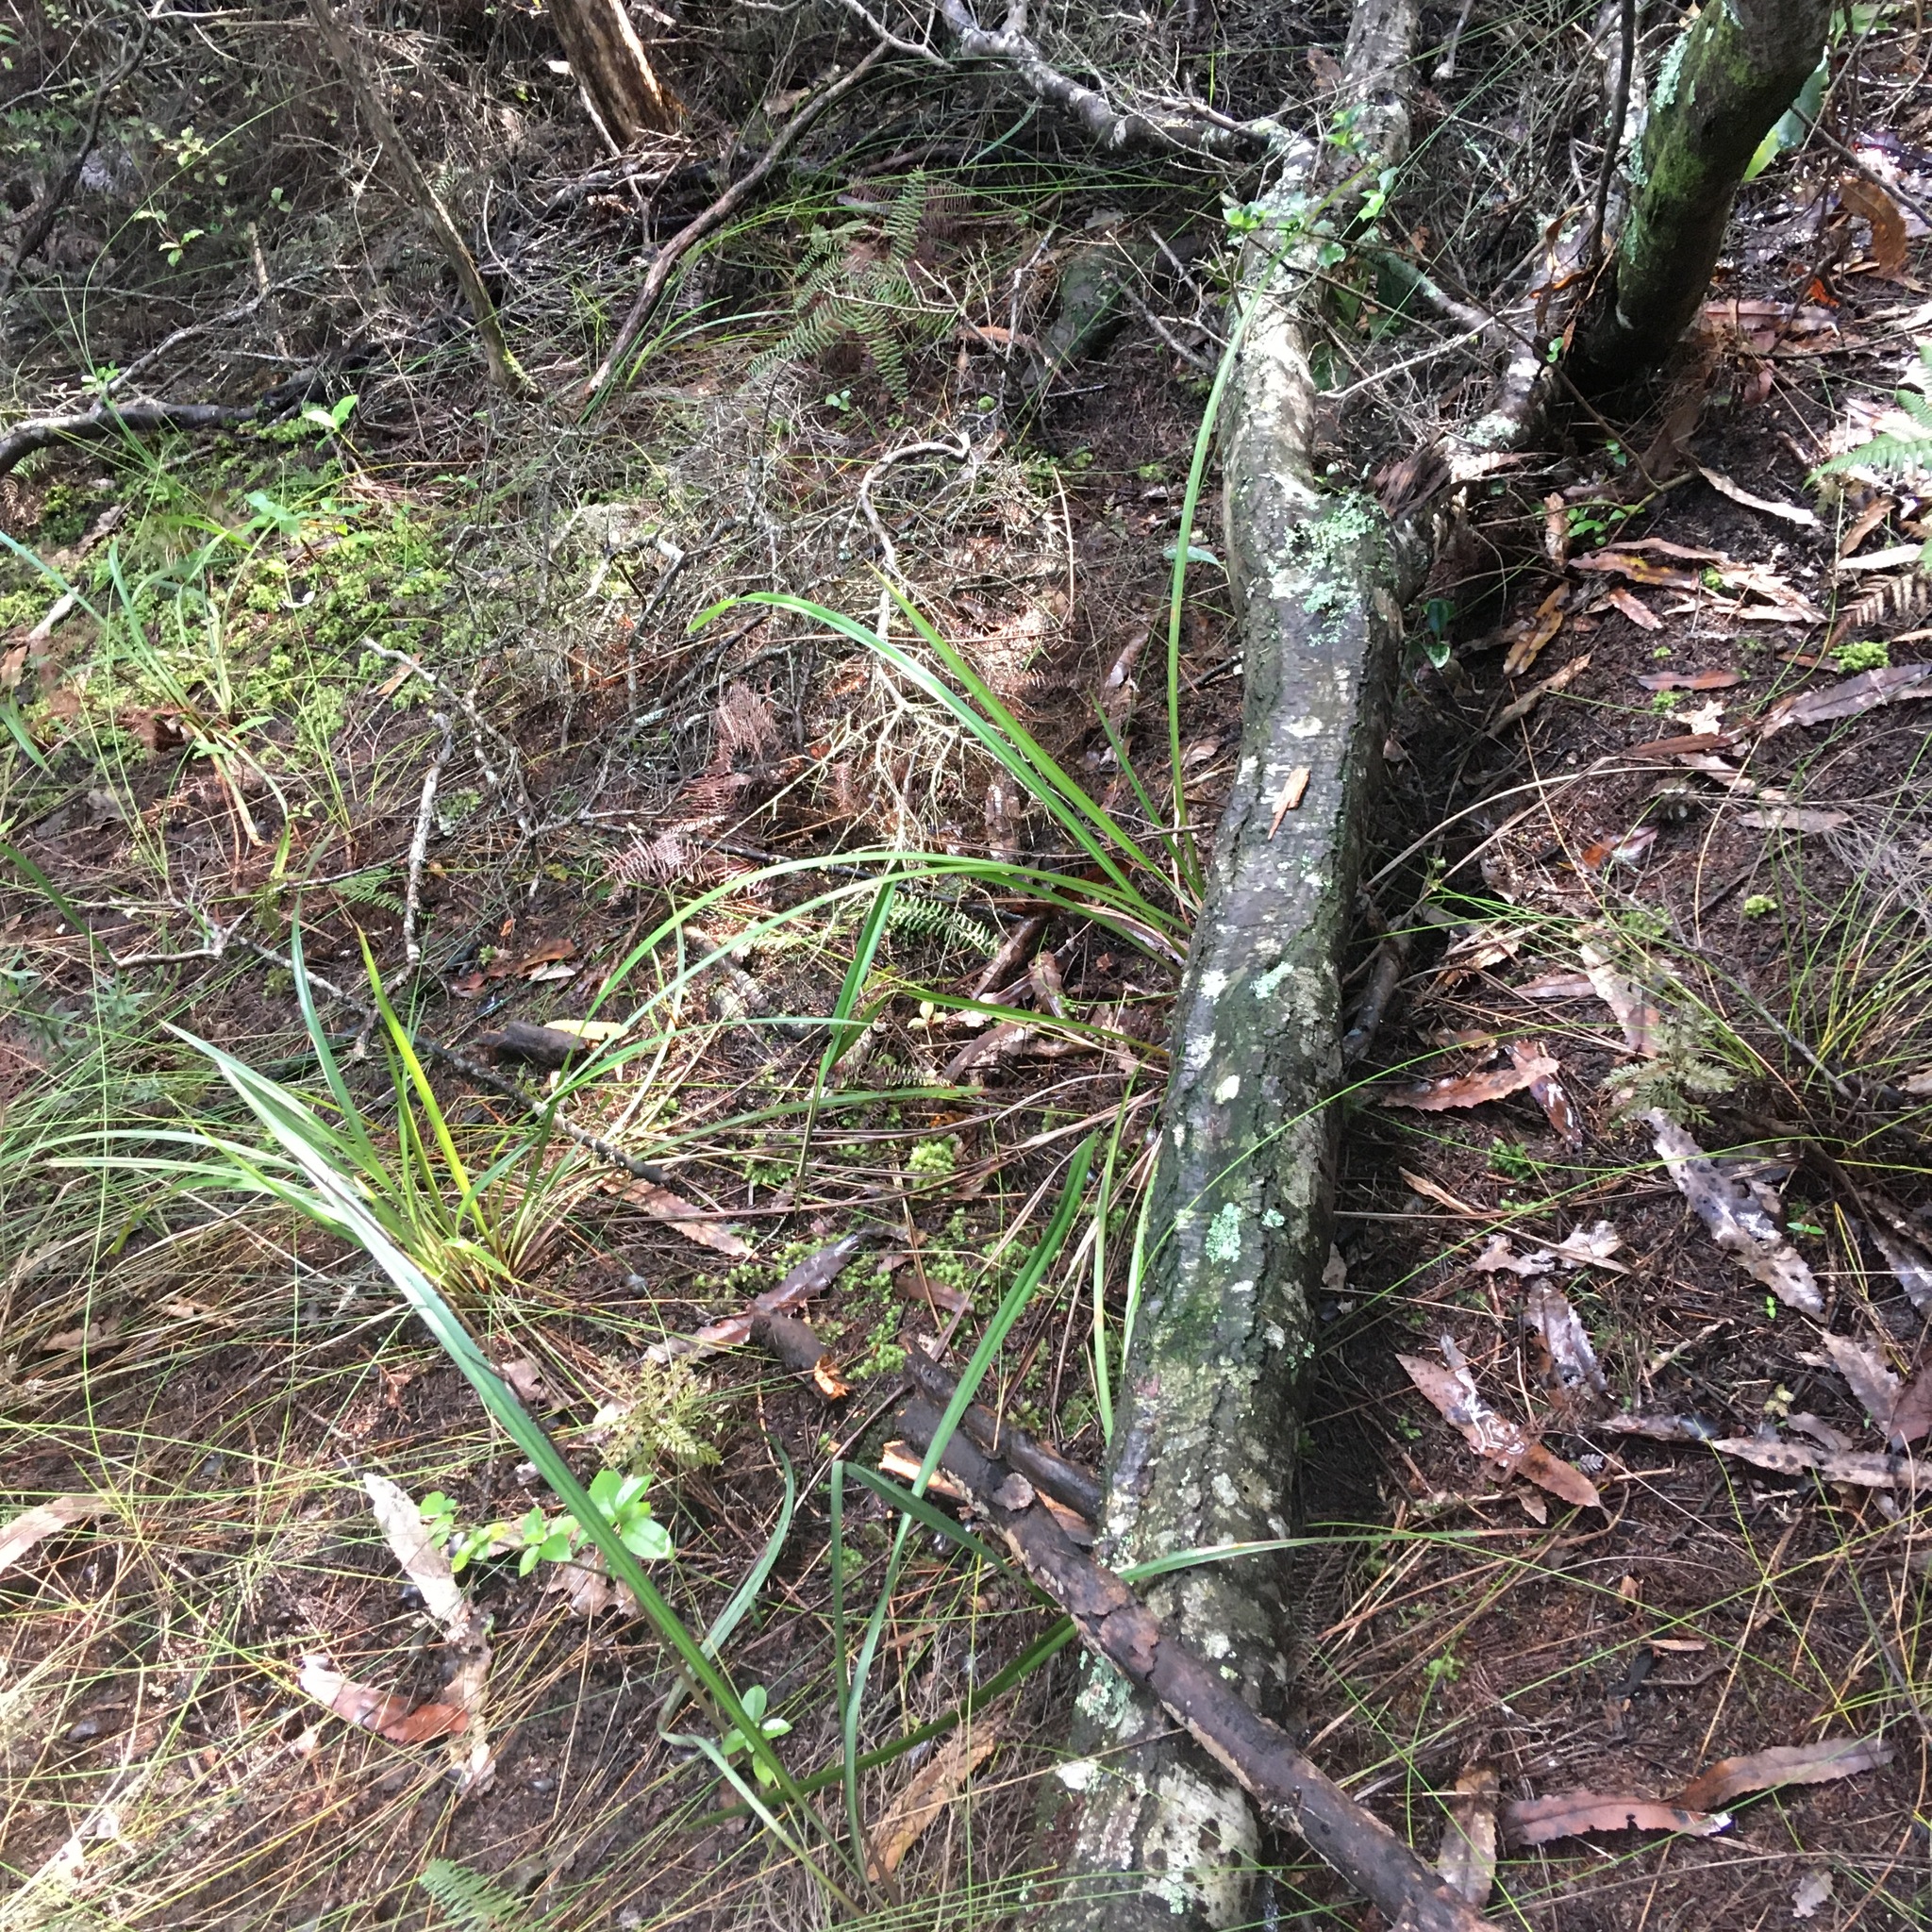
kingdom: Plantae
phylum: Tracheophyta
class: Liliopsida
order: Asparagales
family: Asphodelaceae
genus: Dianella
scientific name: Dianella nigra
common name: New zealand-blueberry
